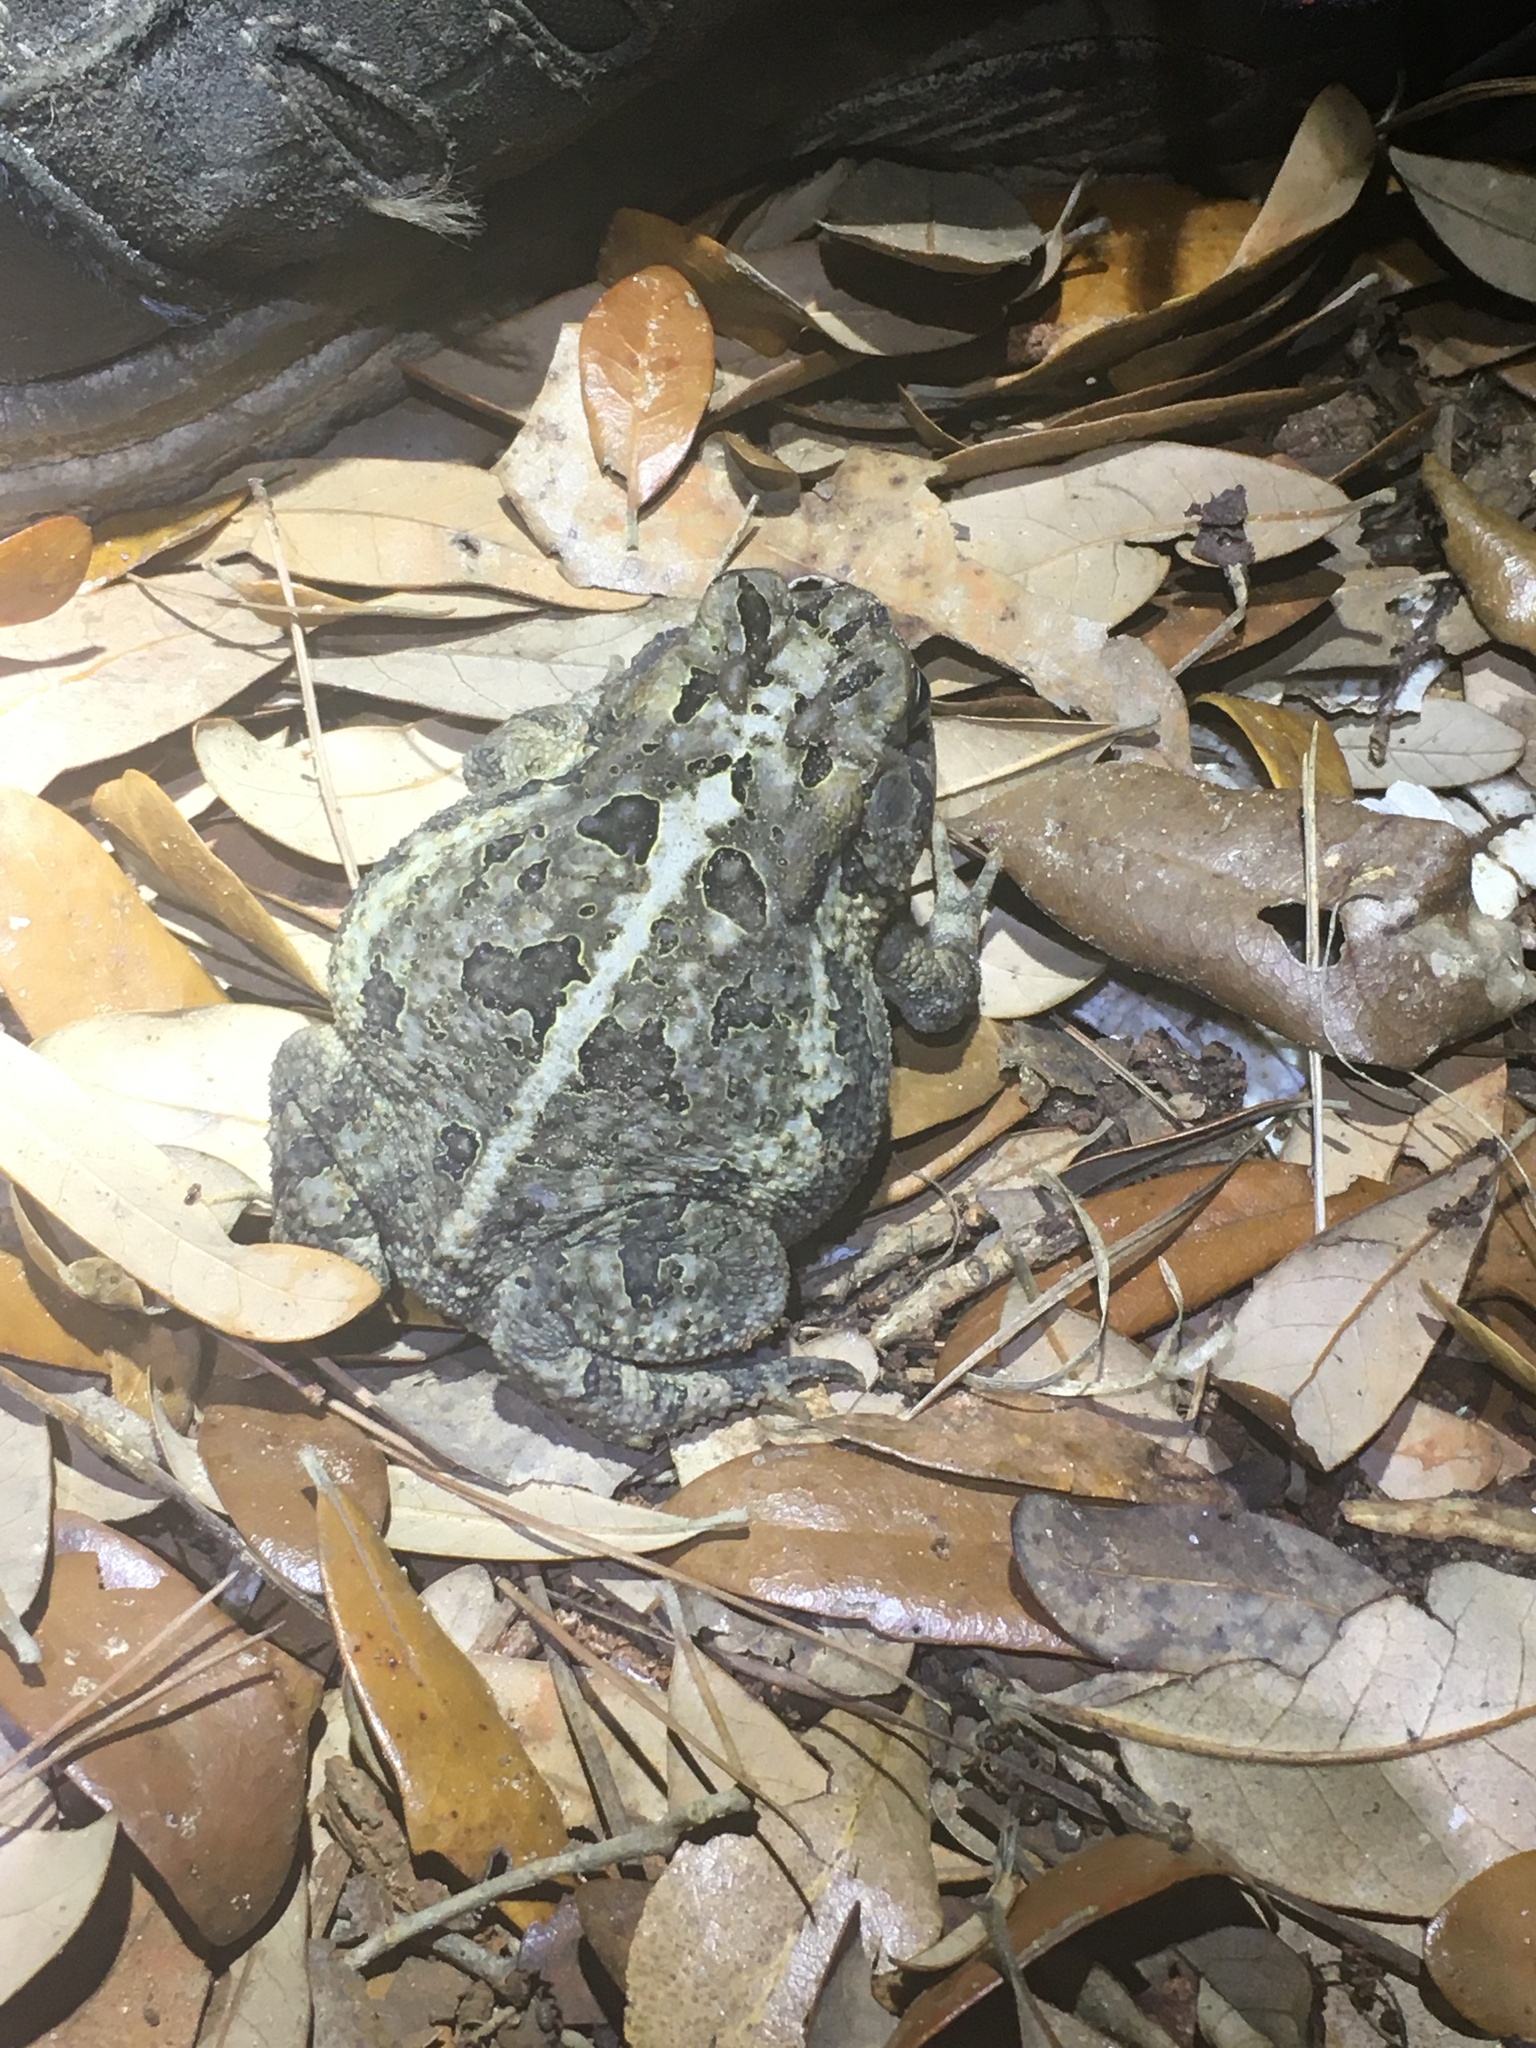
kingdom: Animalia
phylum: Chordata
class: Amphibia
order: Anura
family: Bufonidae
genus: Anaxyrus
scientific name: Anaxyrus terrestris
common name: Southern toad
